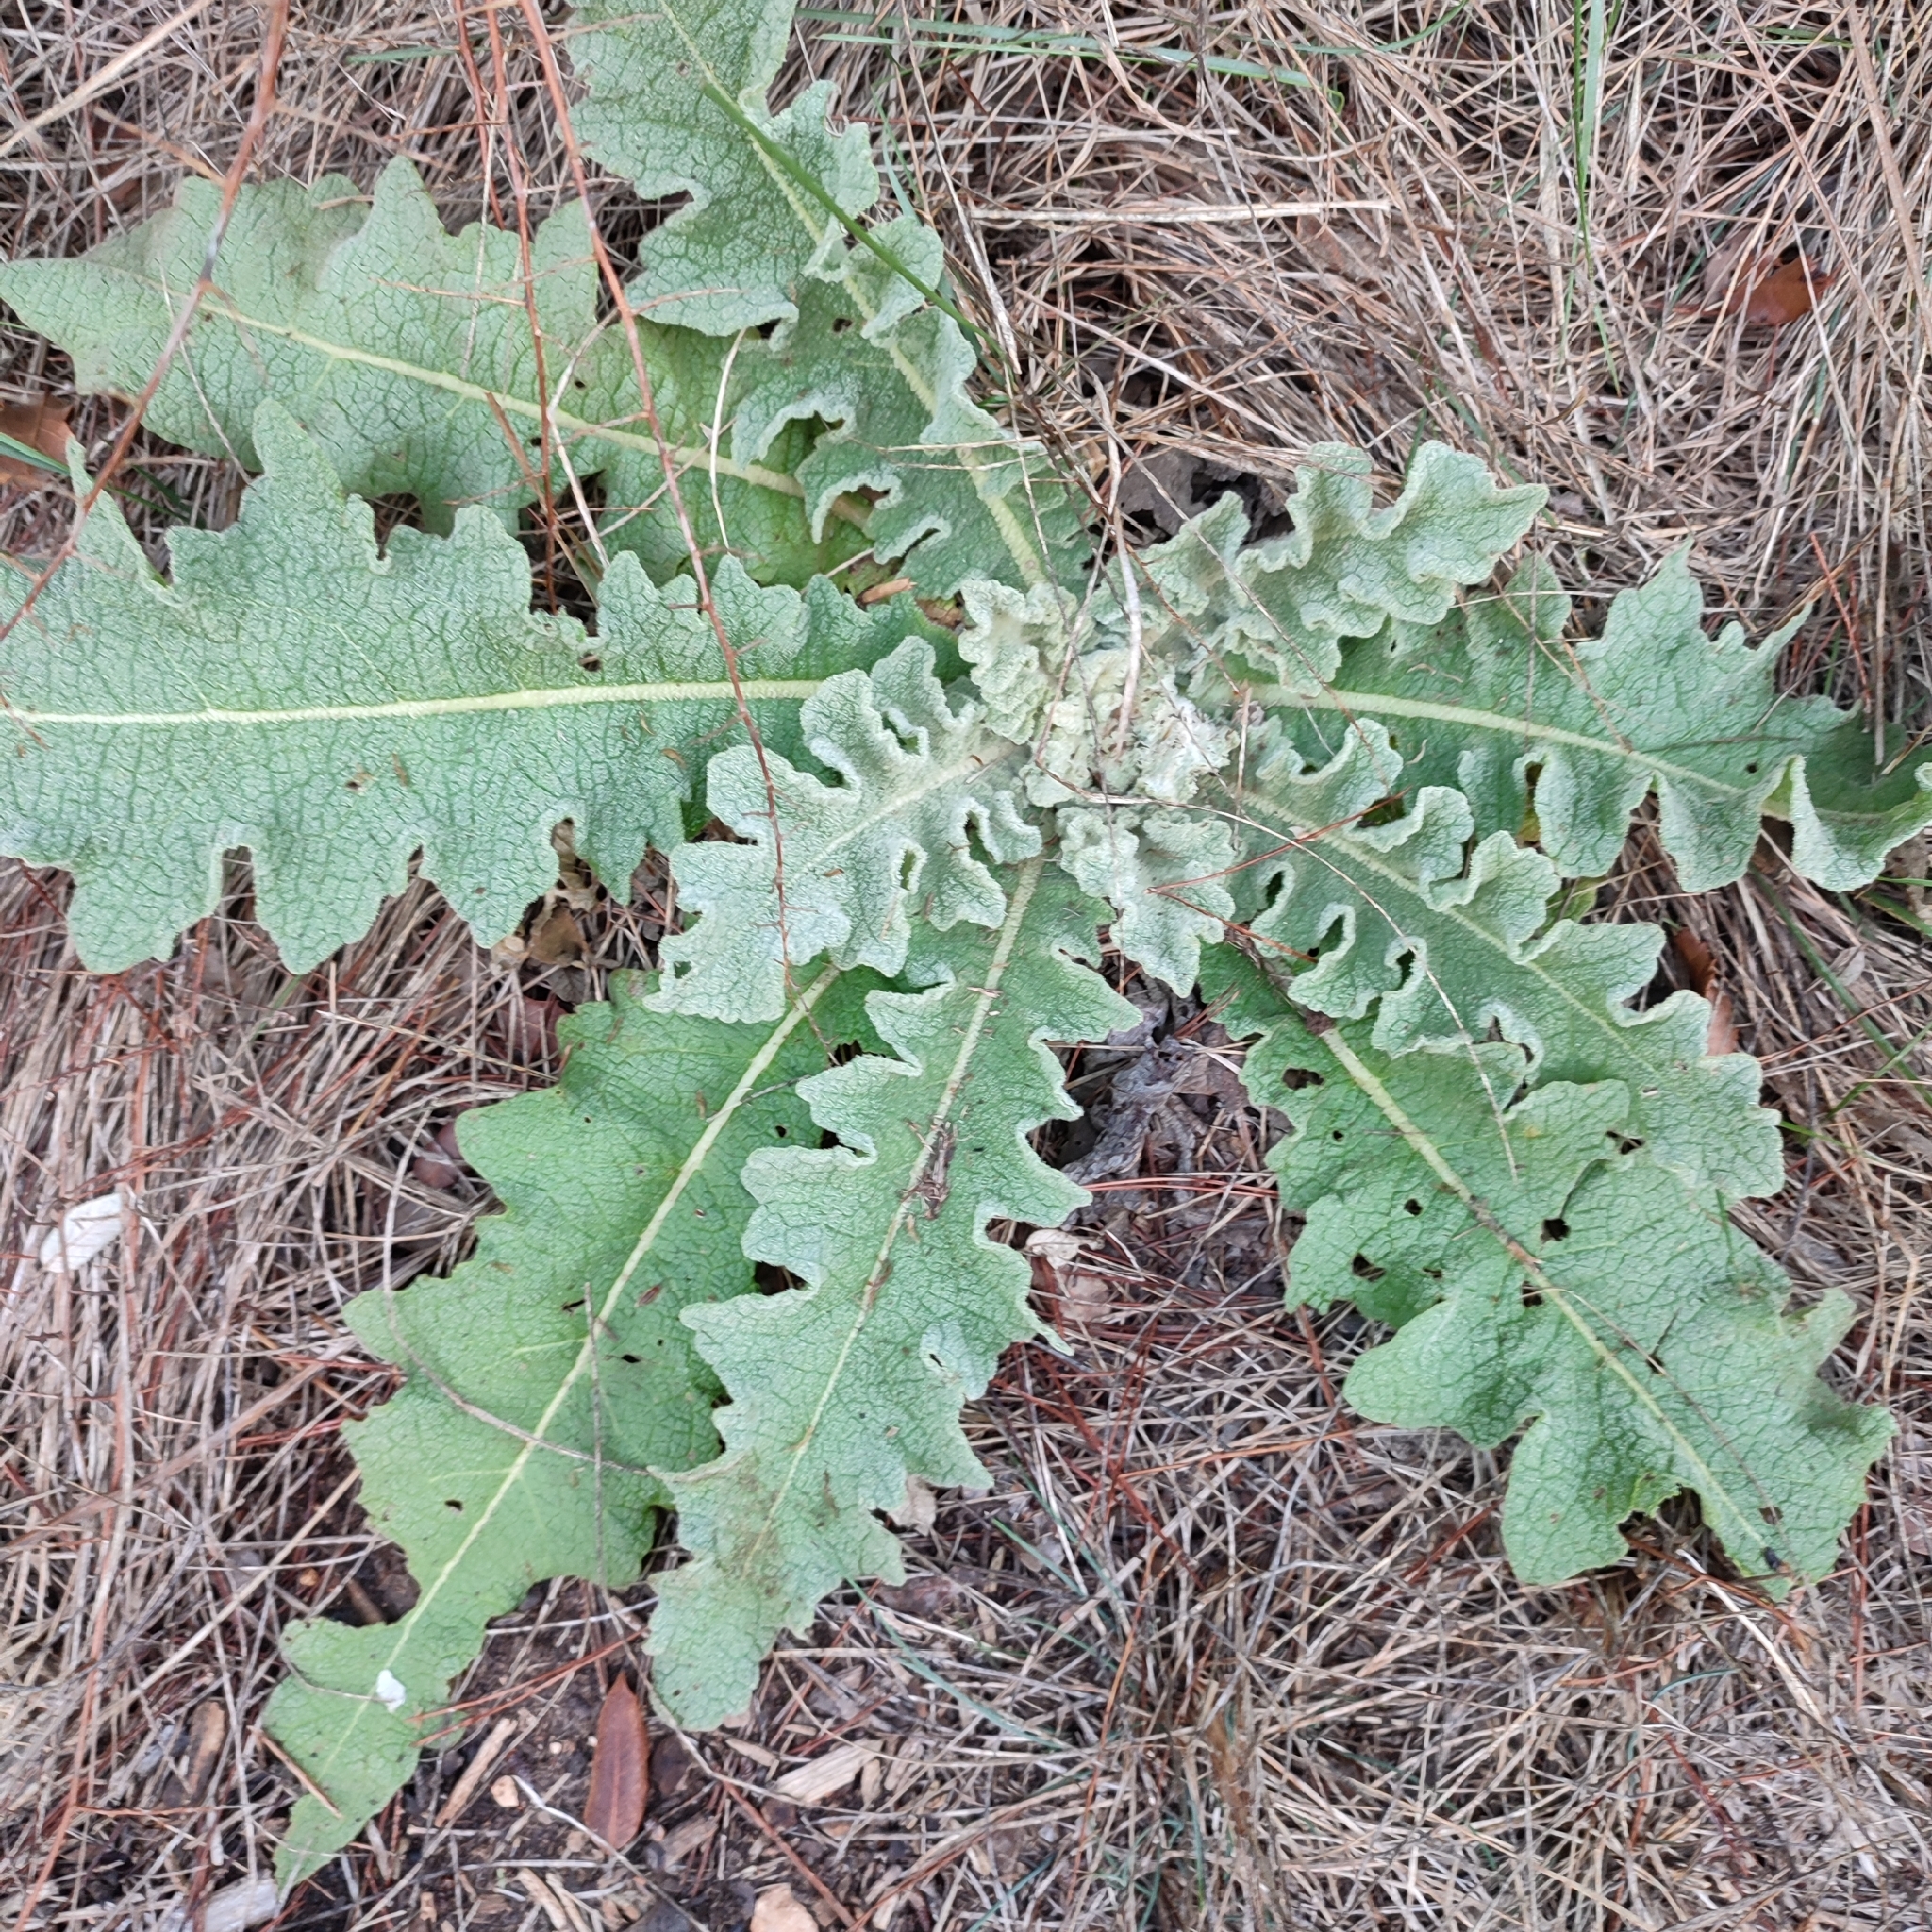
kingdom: Plantae
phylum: Tracheophyta
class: Magnoliopsida
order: Lamiales
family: Scrophulariaceae
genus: Verbascum
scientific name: Verbascum sinuatum
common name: Wavyleaf mullein
